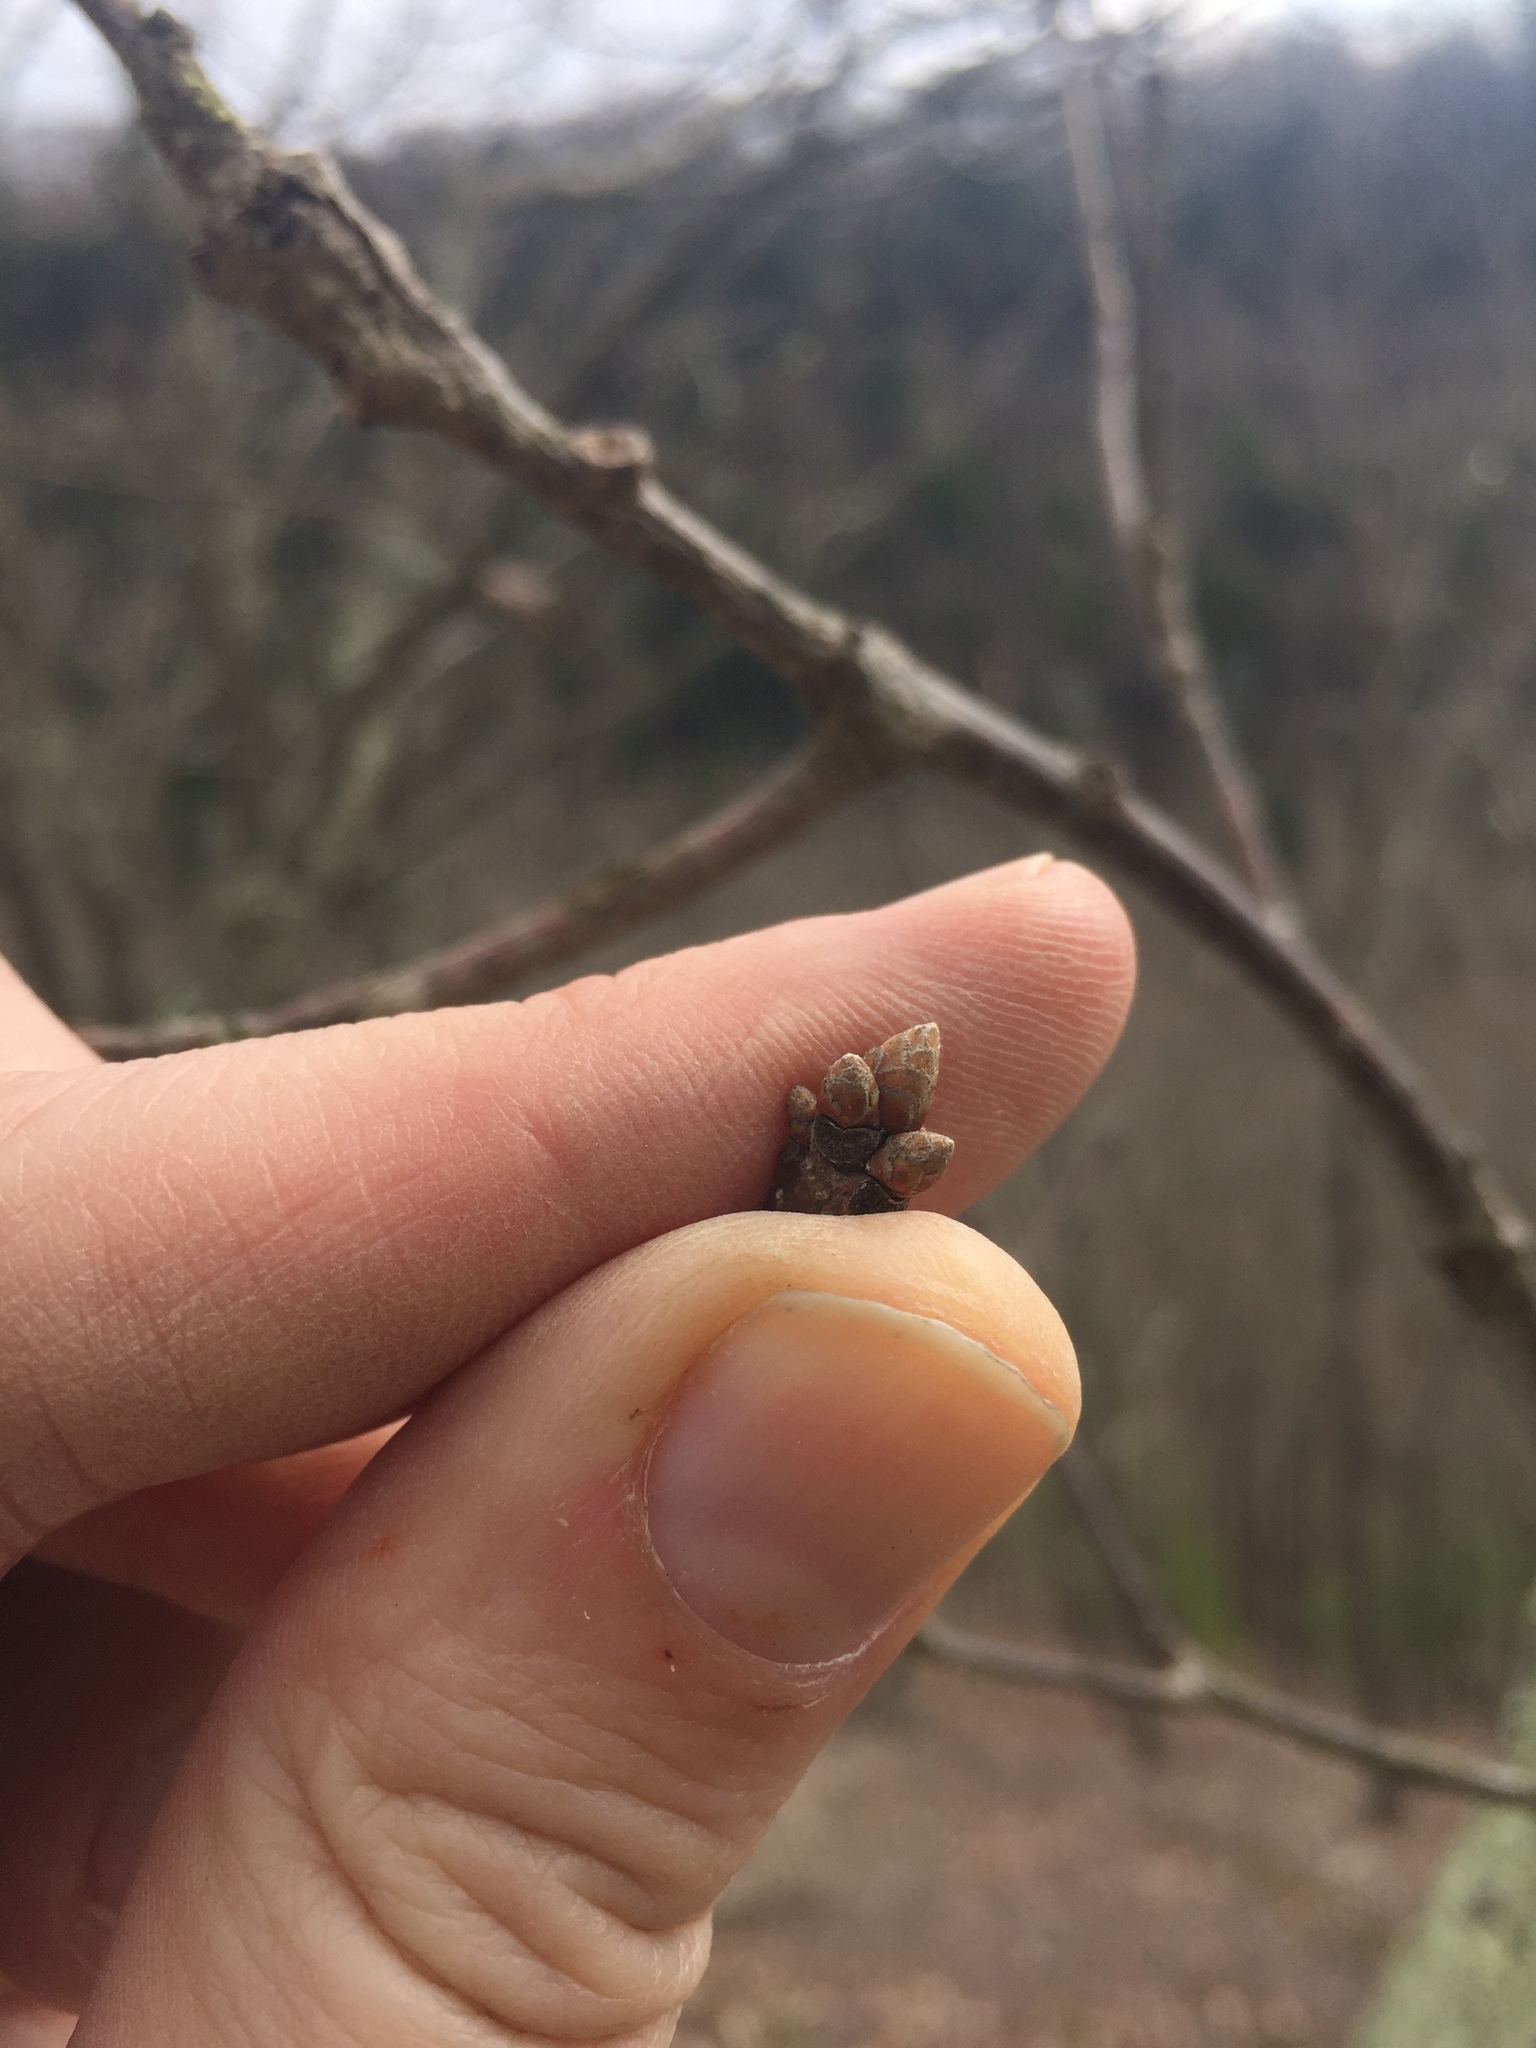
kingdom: Plantae
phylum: Tracheophyta
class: Magnoliopsida
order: Fagales
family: Fagaceae
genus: Quercus
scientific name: Quercus montana
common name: Chestnut oak
